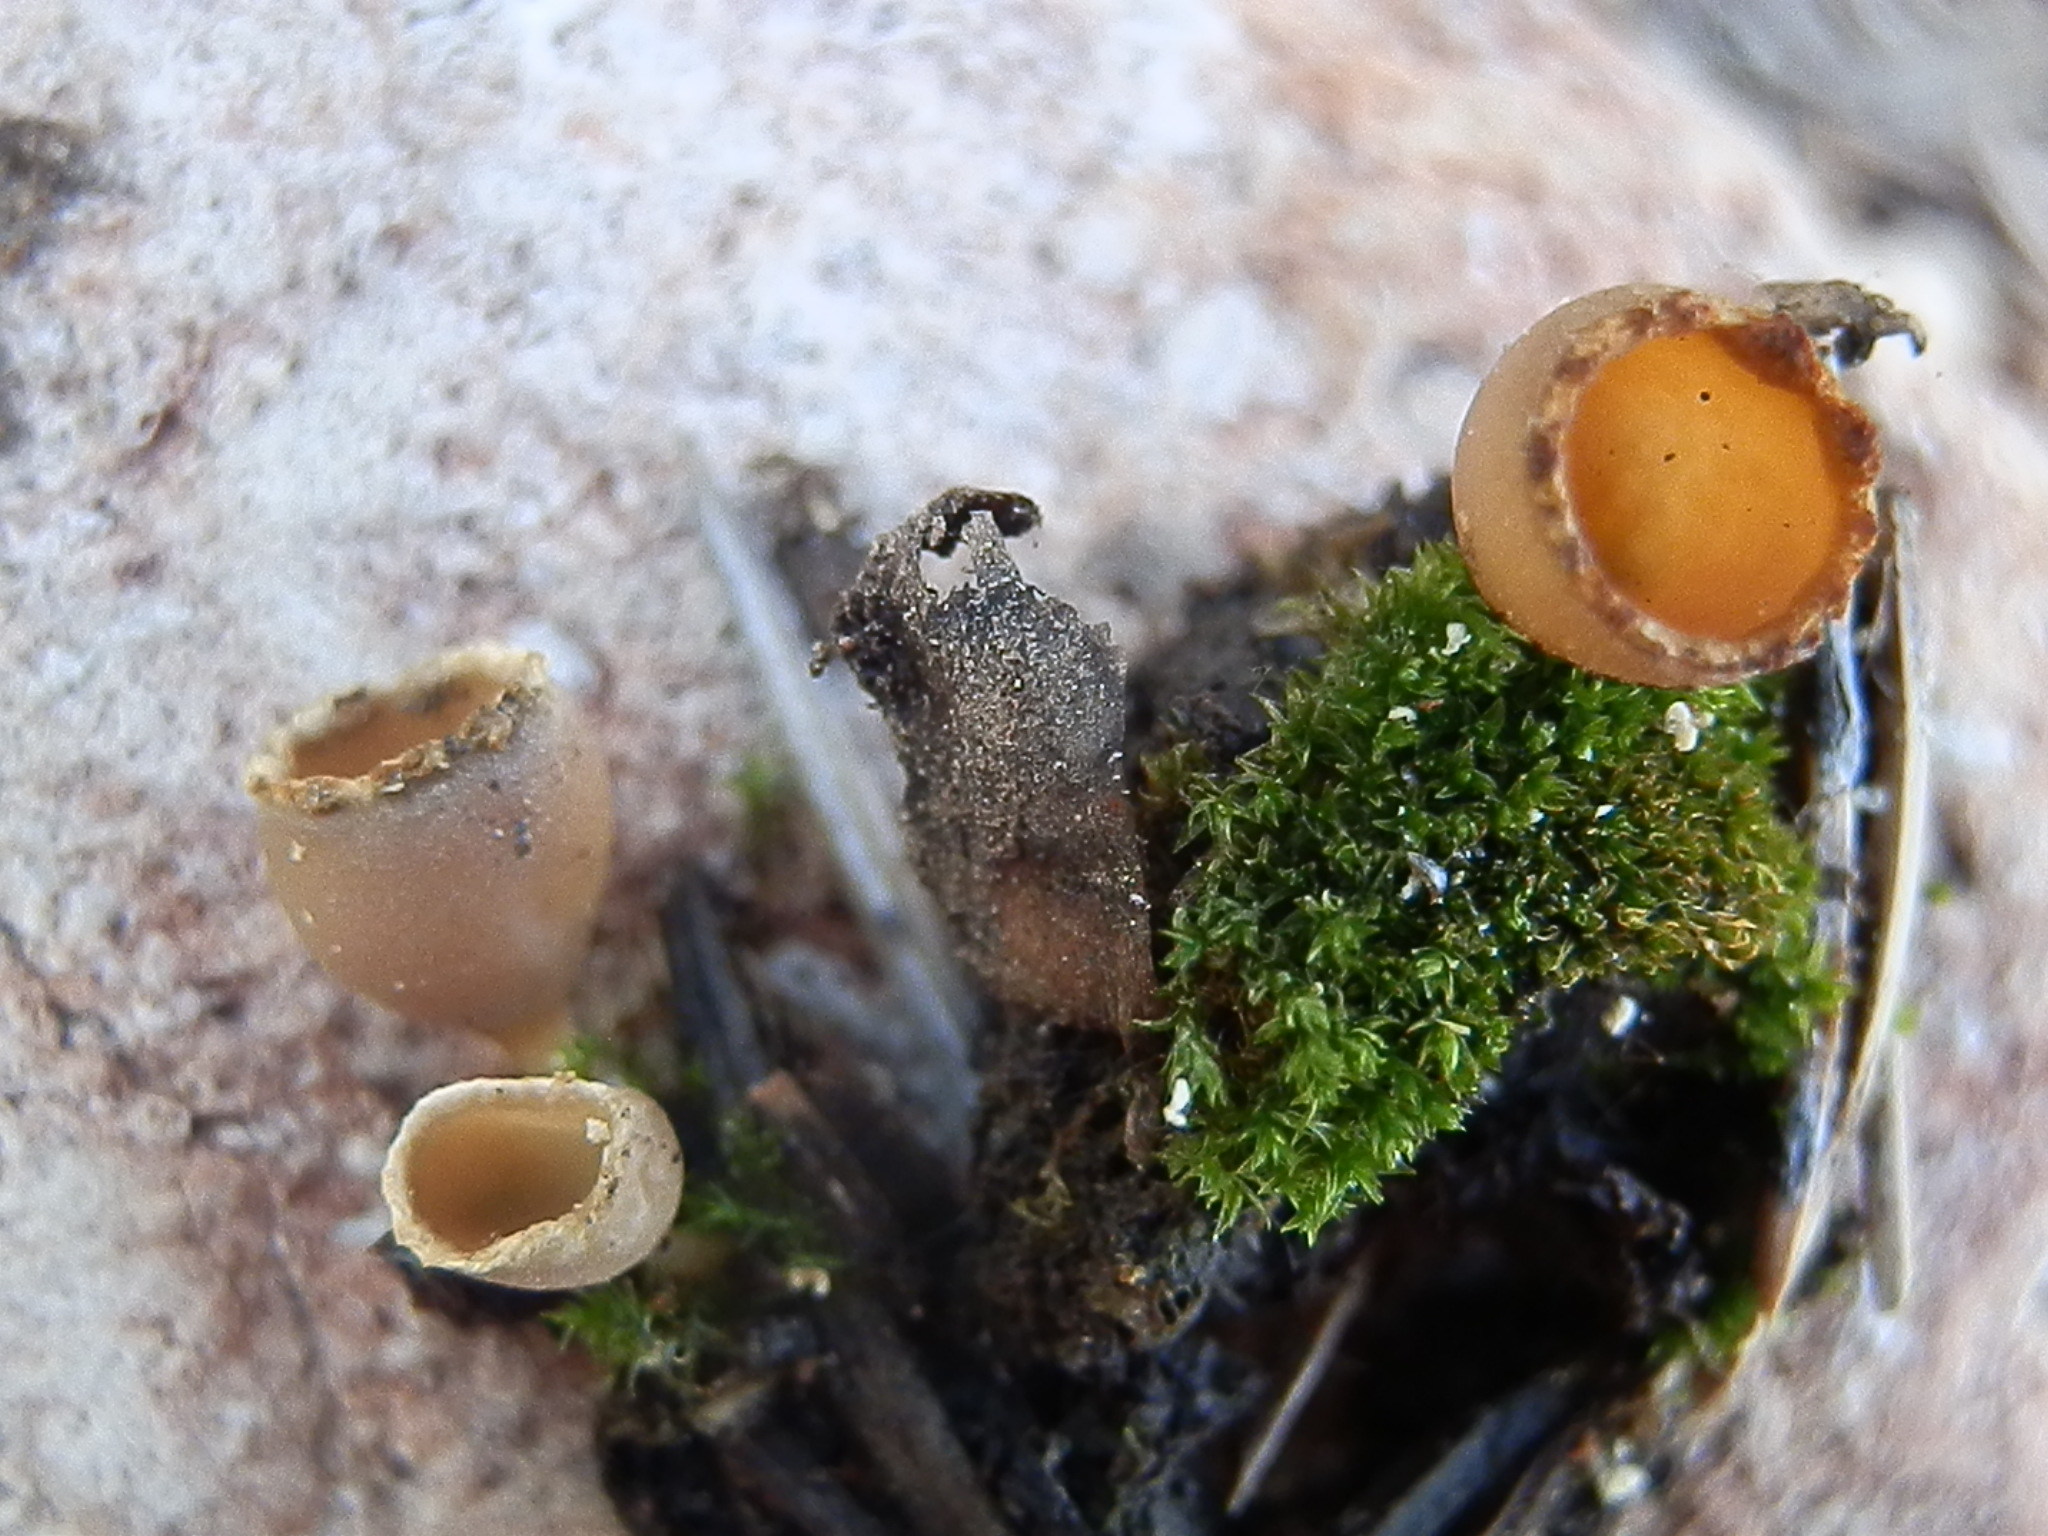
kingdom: Fungi
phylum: Ascomycota
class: Pezizomycetes
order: Pezizales
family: Pyronemataceae
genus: Geopyxis
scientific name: Geopyxis carbonaria
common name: Stalked bonfire cup
